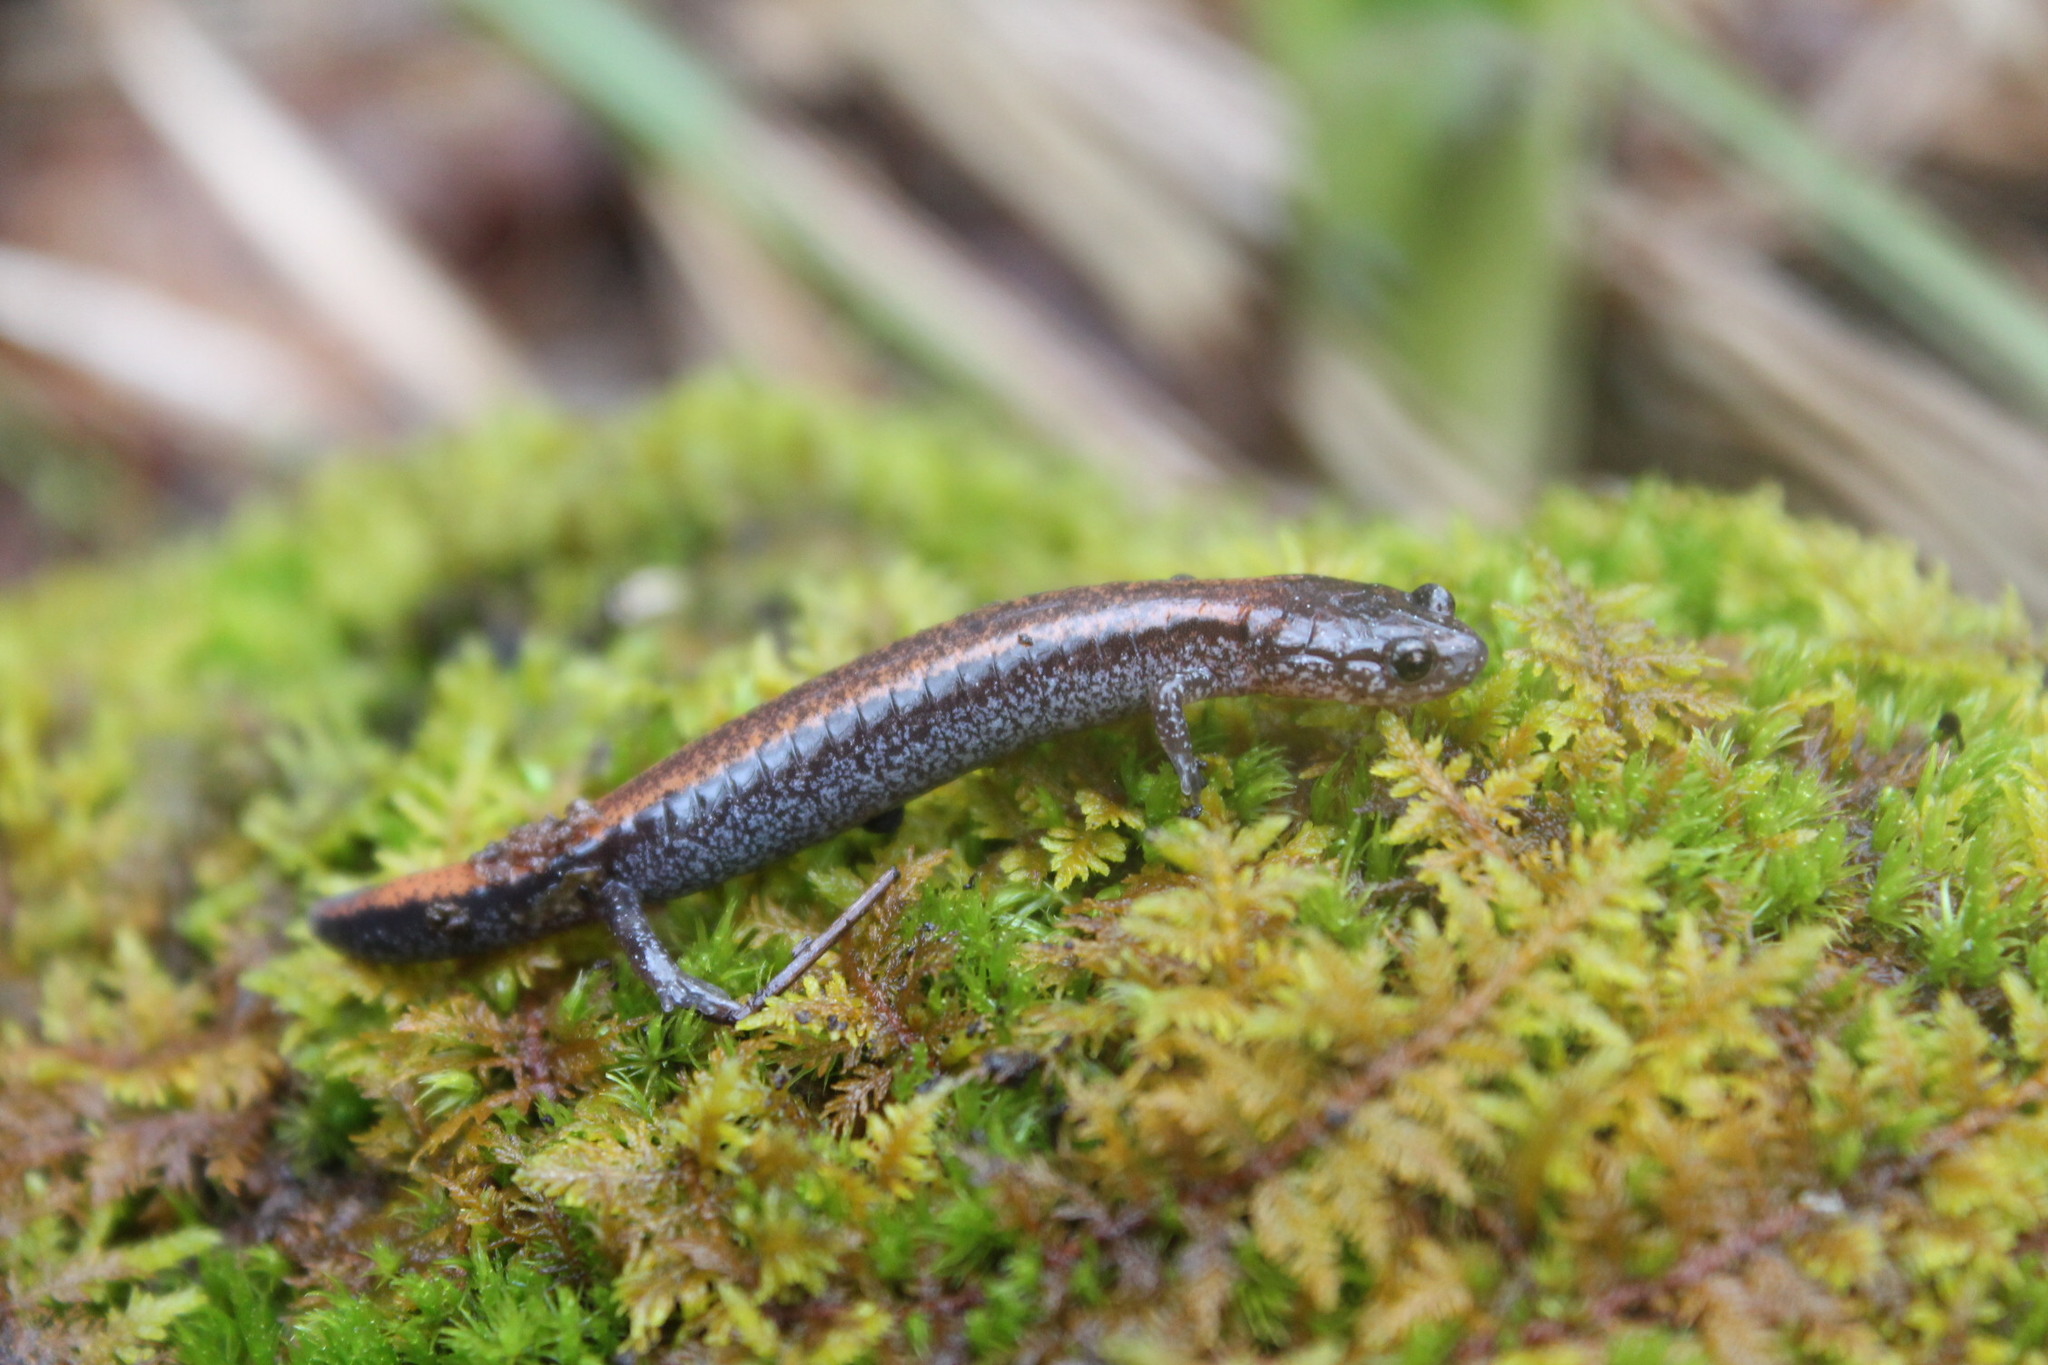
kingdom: Animalia
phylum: Chordata
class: Amphibia
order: Caudata
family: Plethodontidae
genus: Plethodon
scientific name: Plethodon cinereus
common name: Redback salamander
